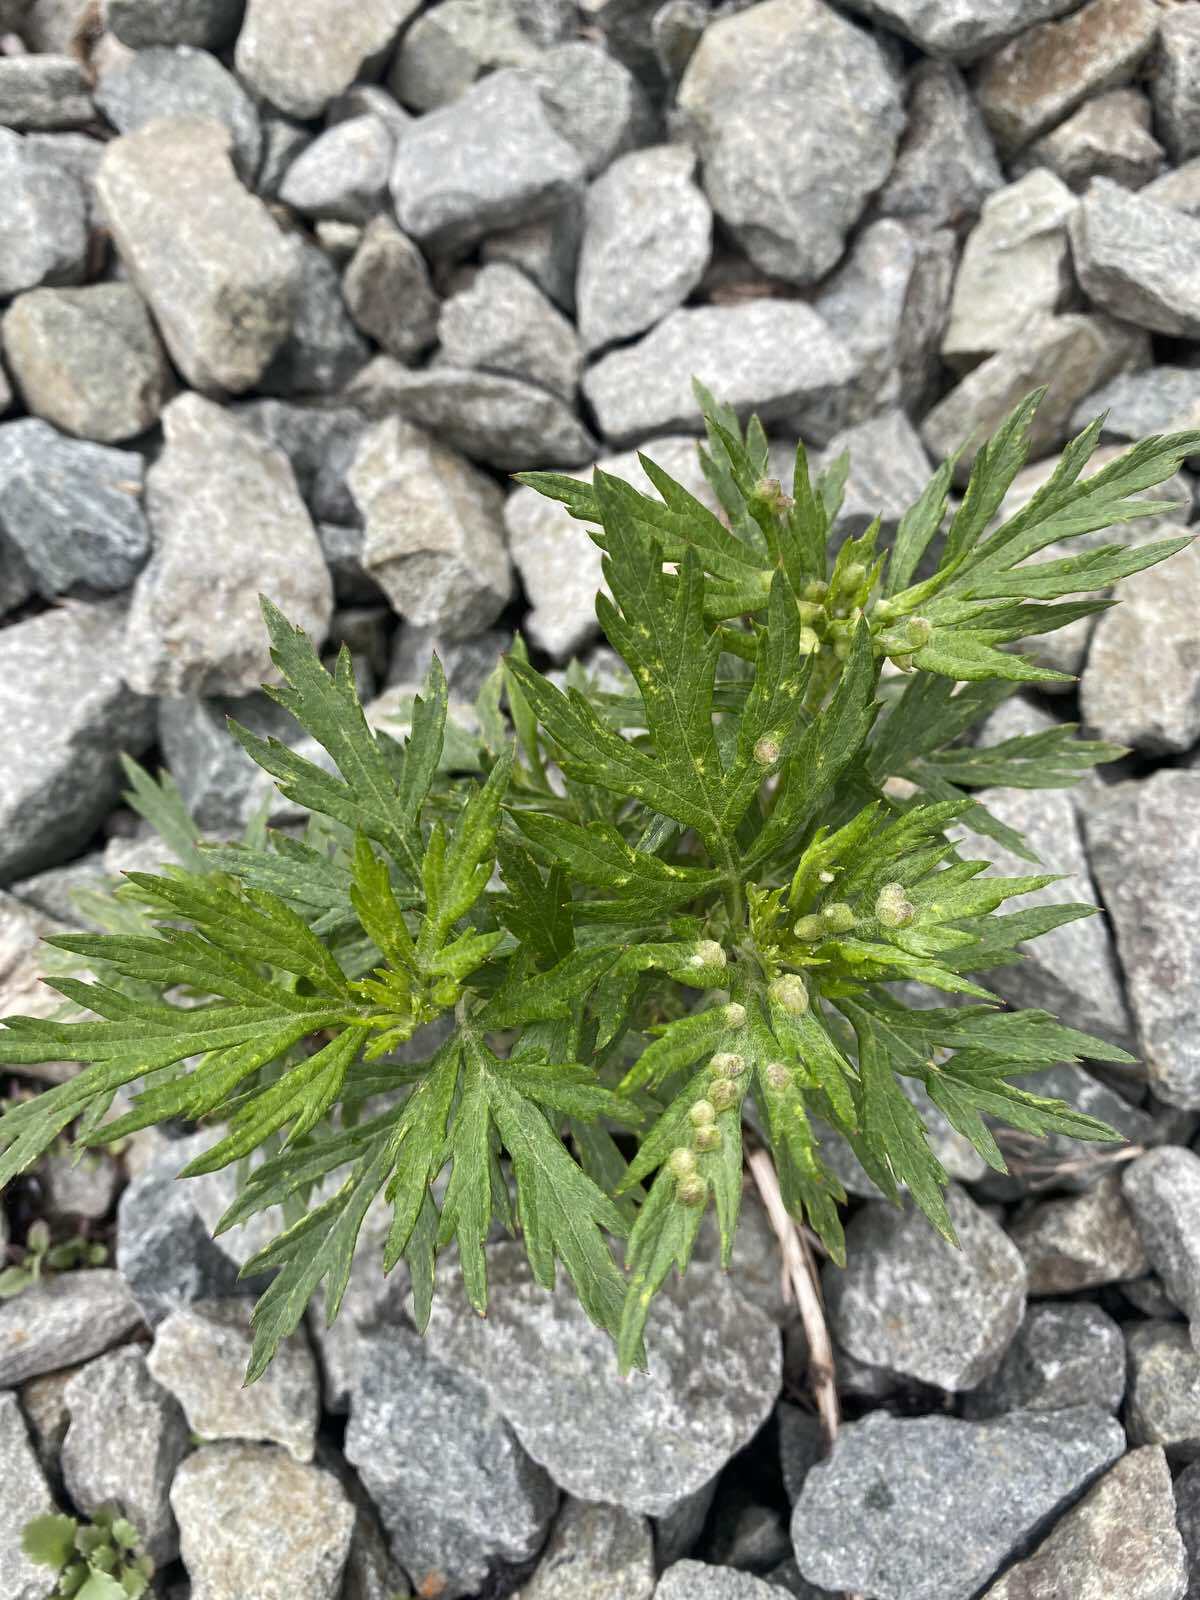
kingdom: Plantae
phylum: Tracheophyta
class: Magnoliopsida
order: Asterales
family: Asteraceae
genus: Artemisia
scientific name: Artemisia vulgaris
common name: Mugwort
